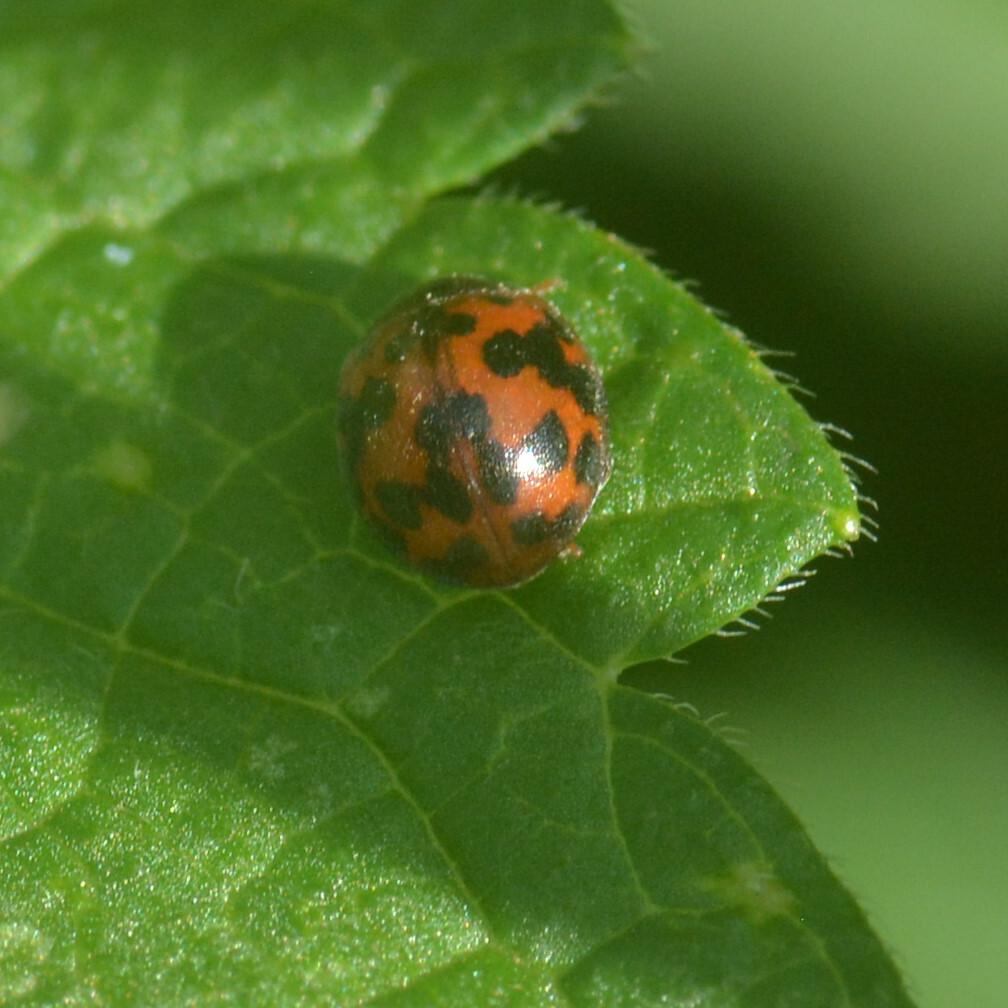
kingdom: Animalia
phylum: Arthropoda
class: Insecta
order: Coleoptera
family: Coccinellidae
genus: Subcoccinella
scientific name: Subcoccinella vigintiquatuorpunctata
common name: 24-spot ladybird
